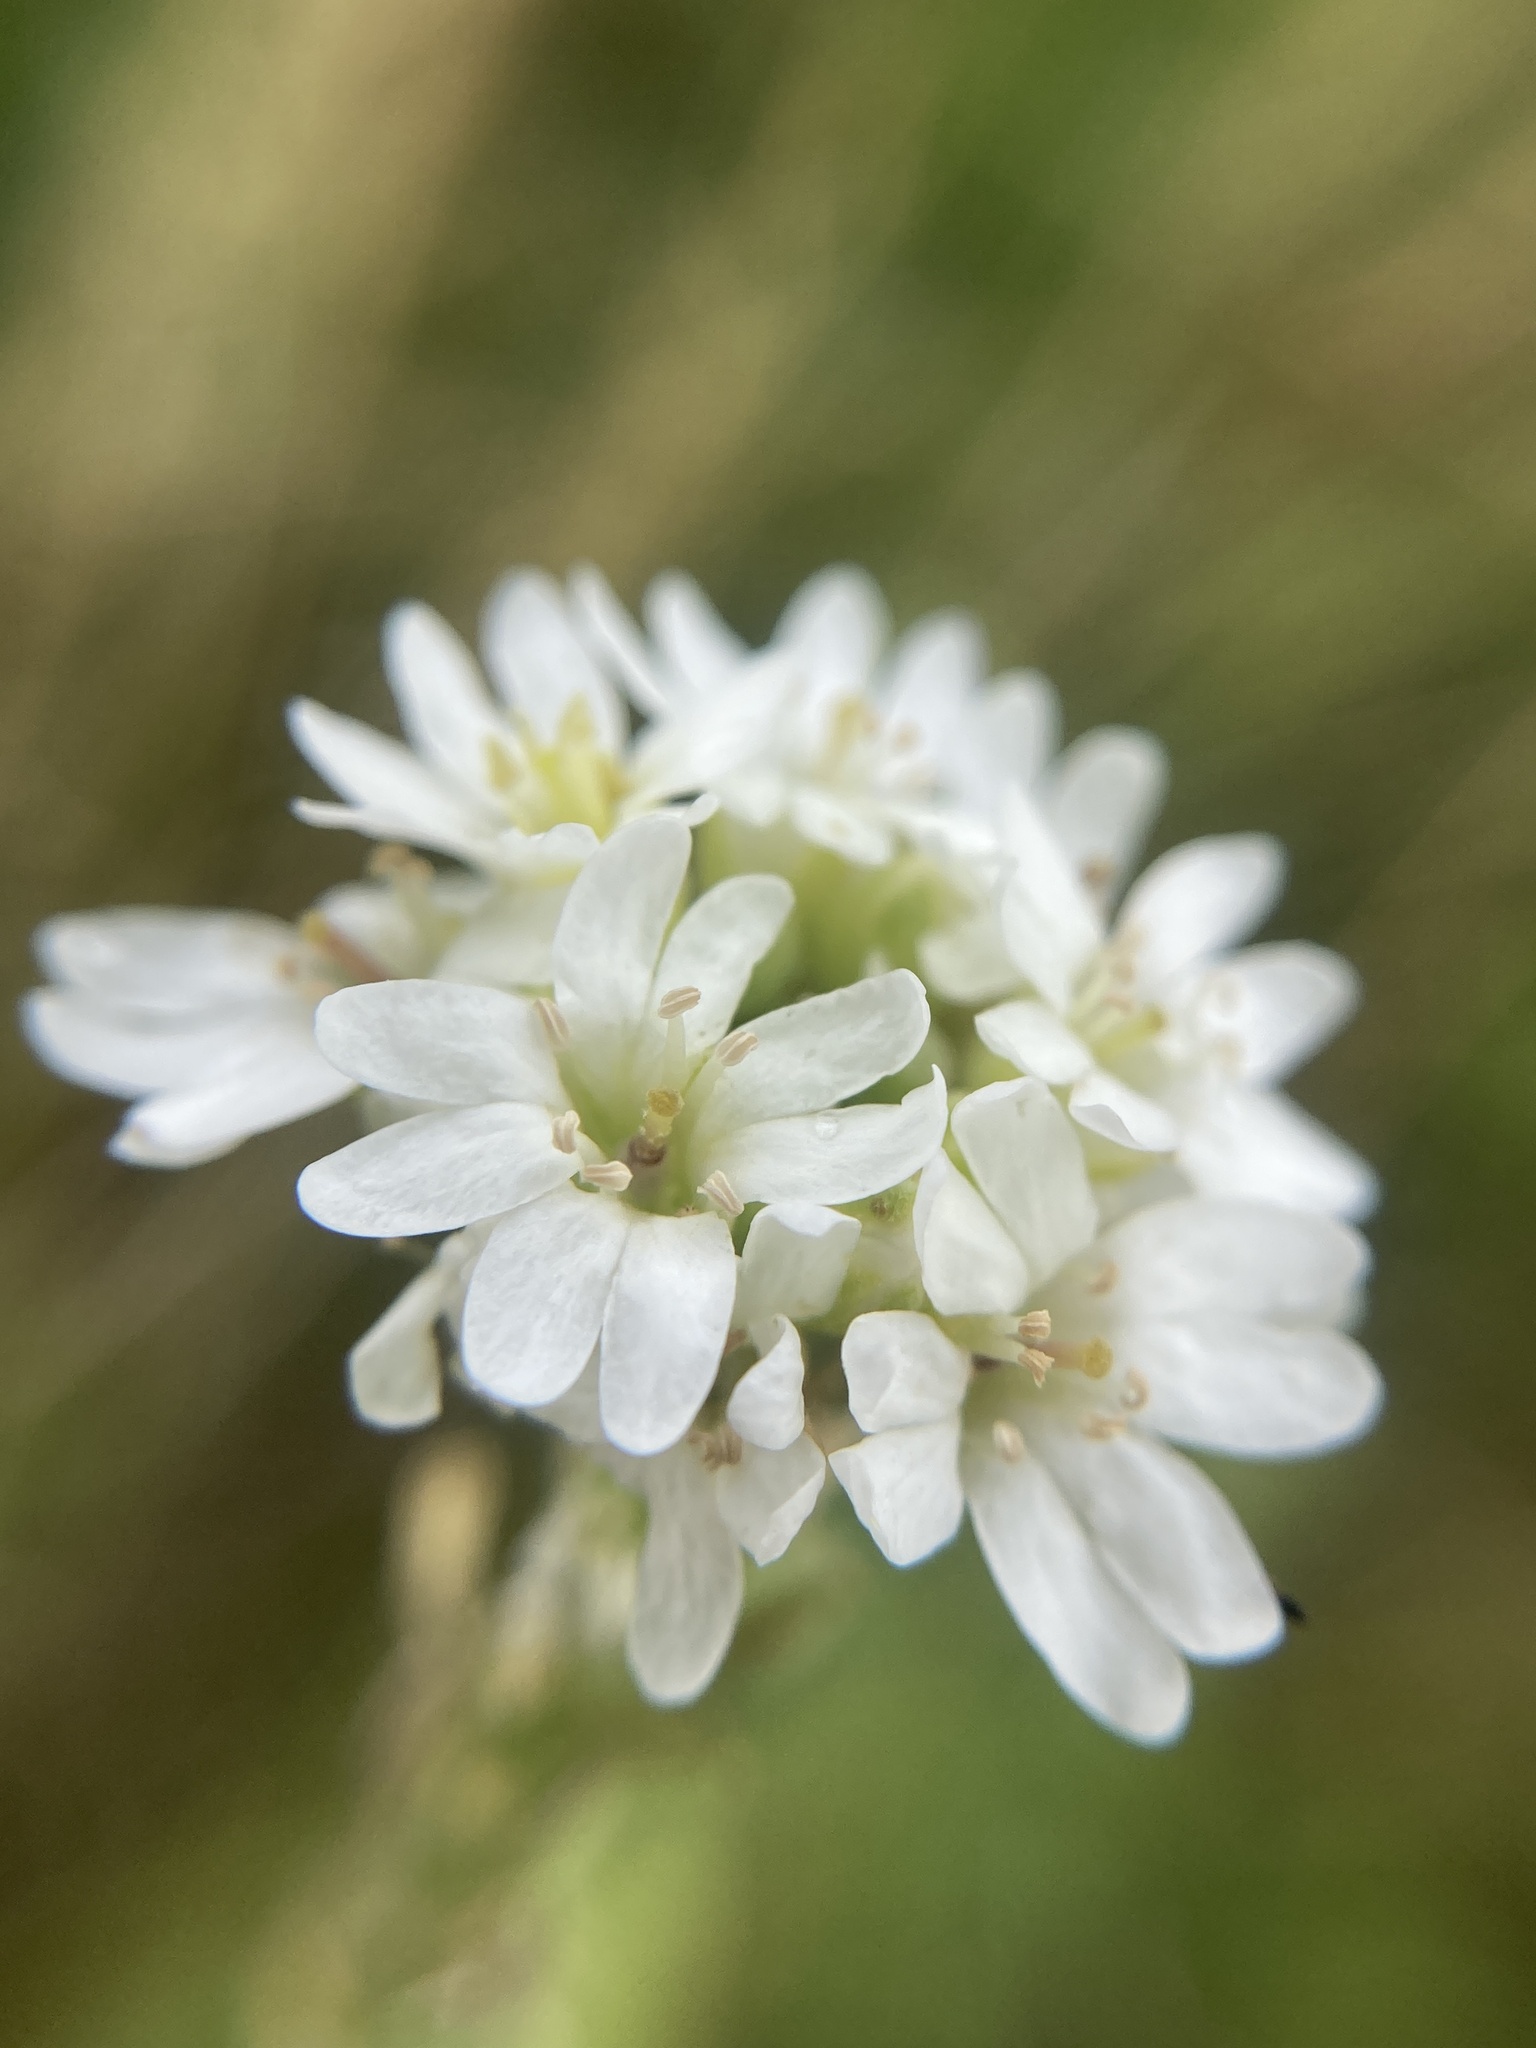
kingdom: Plantae
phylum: Tracheophyta
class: Magnoliopsida
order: Brassicales
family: Brassicaceae
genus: Berteroa
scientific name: Berteroa incana
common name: Hoary alison
